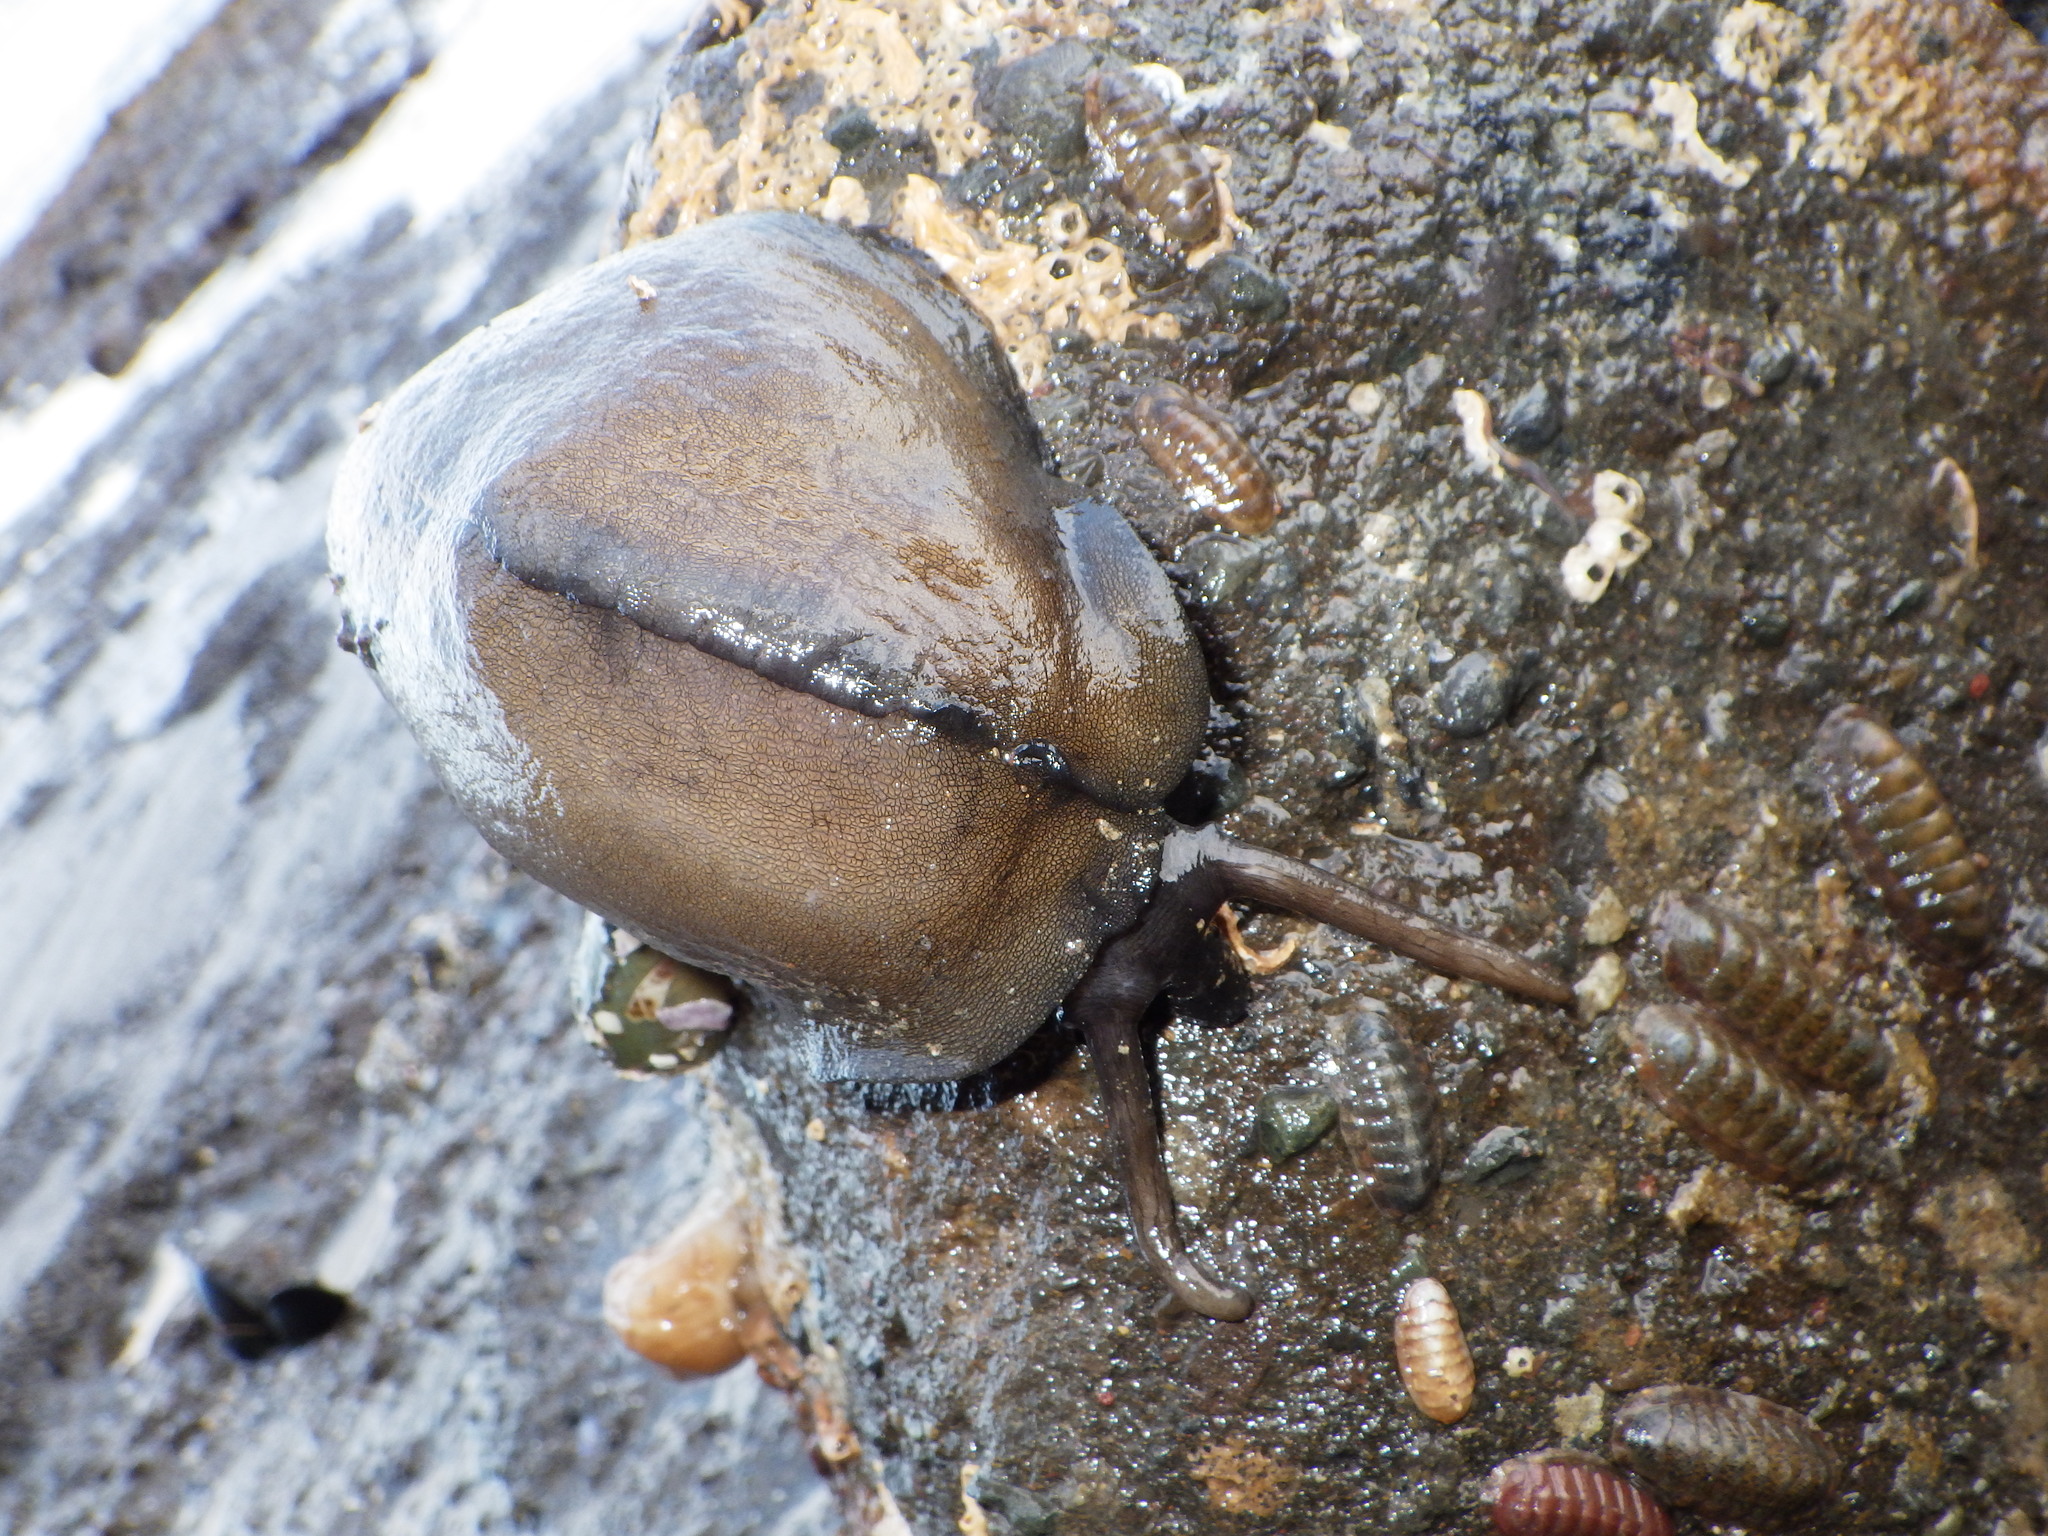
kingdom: Animalia
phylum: Mollusca
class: Gastropoda
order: Lepetellida
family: Fissurellidae
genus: Scutus
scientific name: Scutus breviculus
